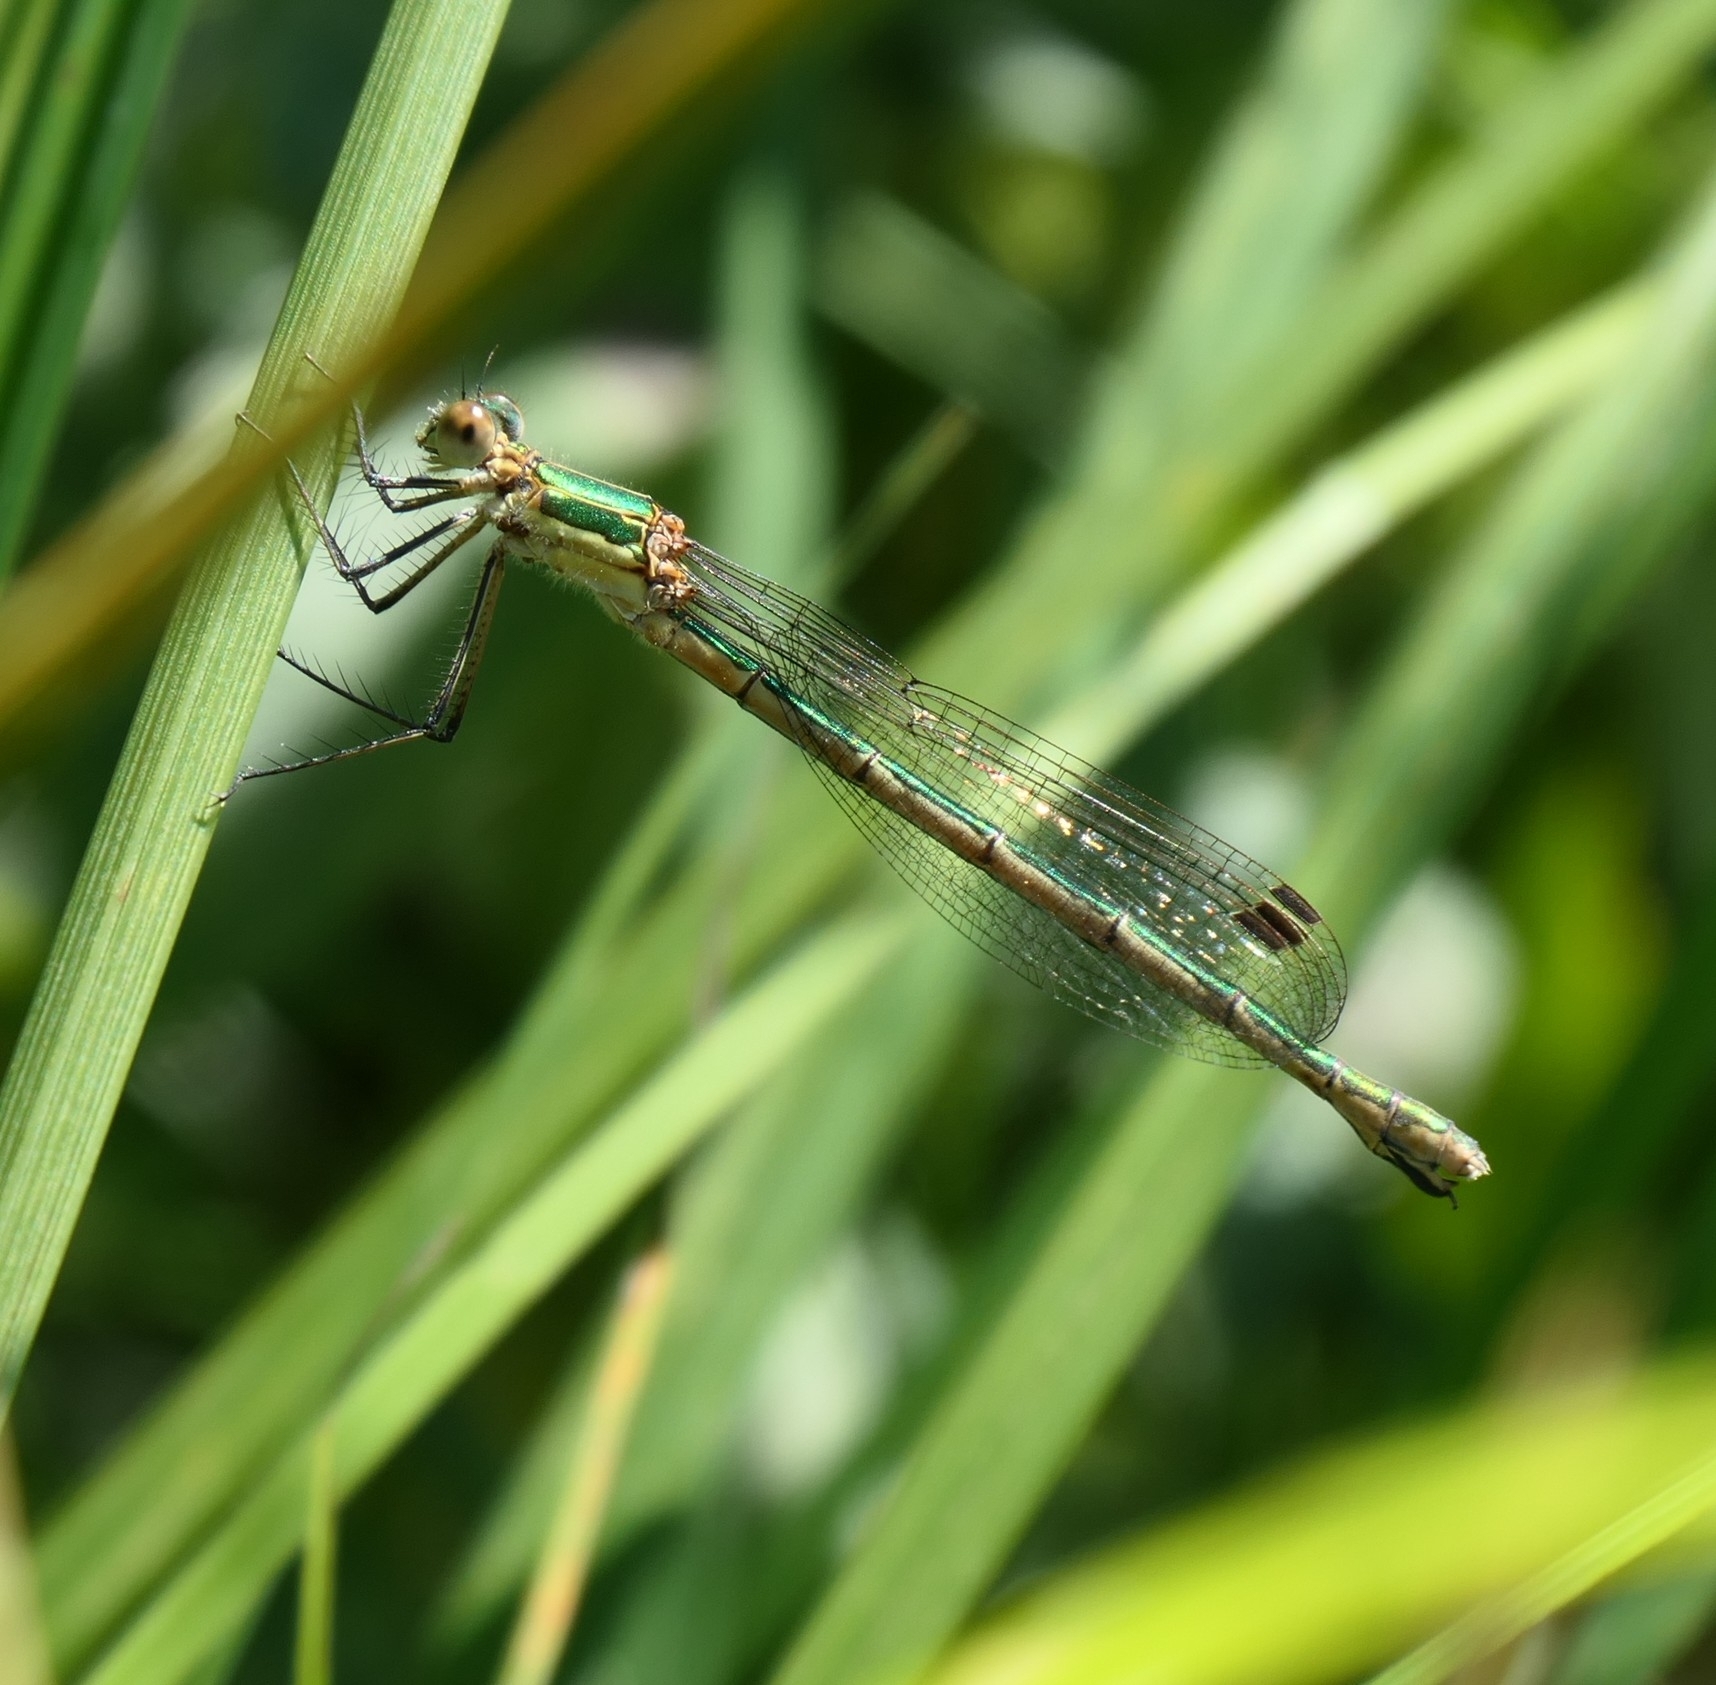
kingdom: Animalia
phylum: Arthropoda
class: Insecta
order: Odonata
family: Lestidae
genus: Lestes
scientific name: Lestes sponsa
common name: Common spreadwing
